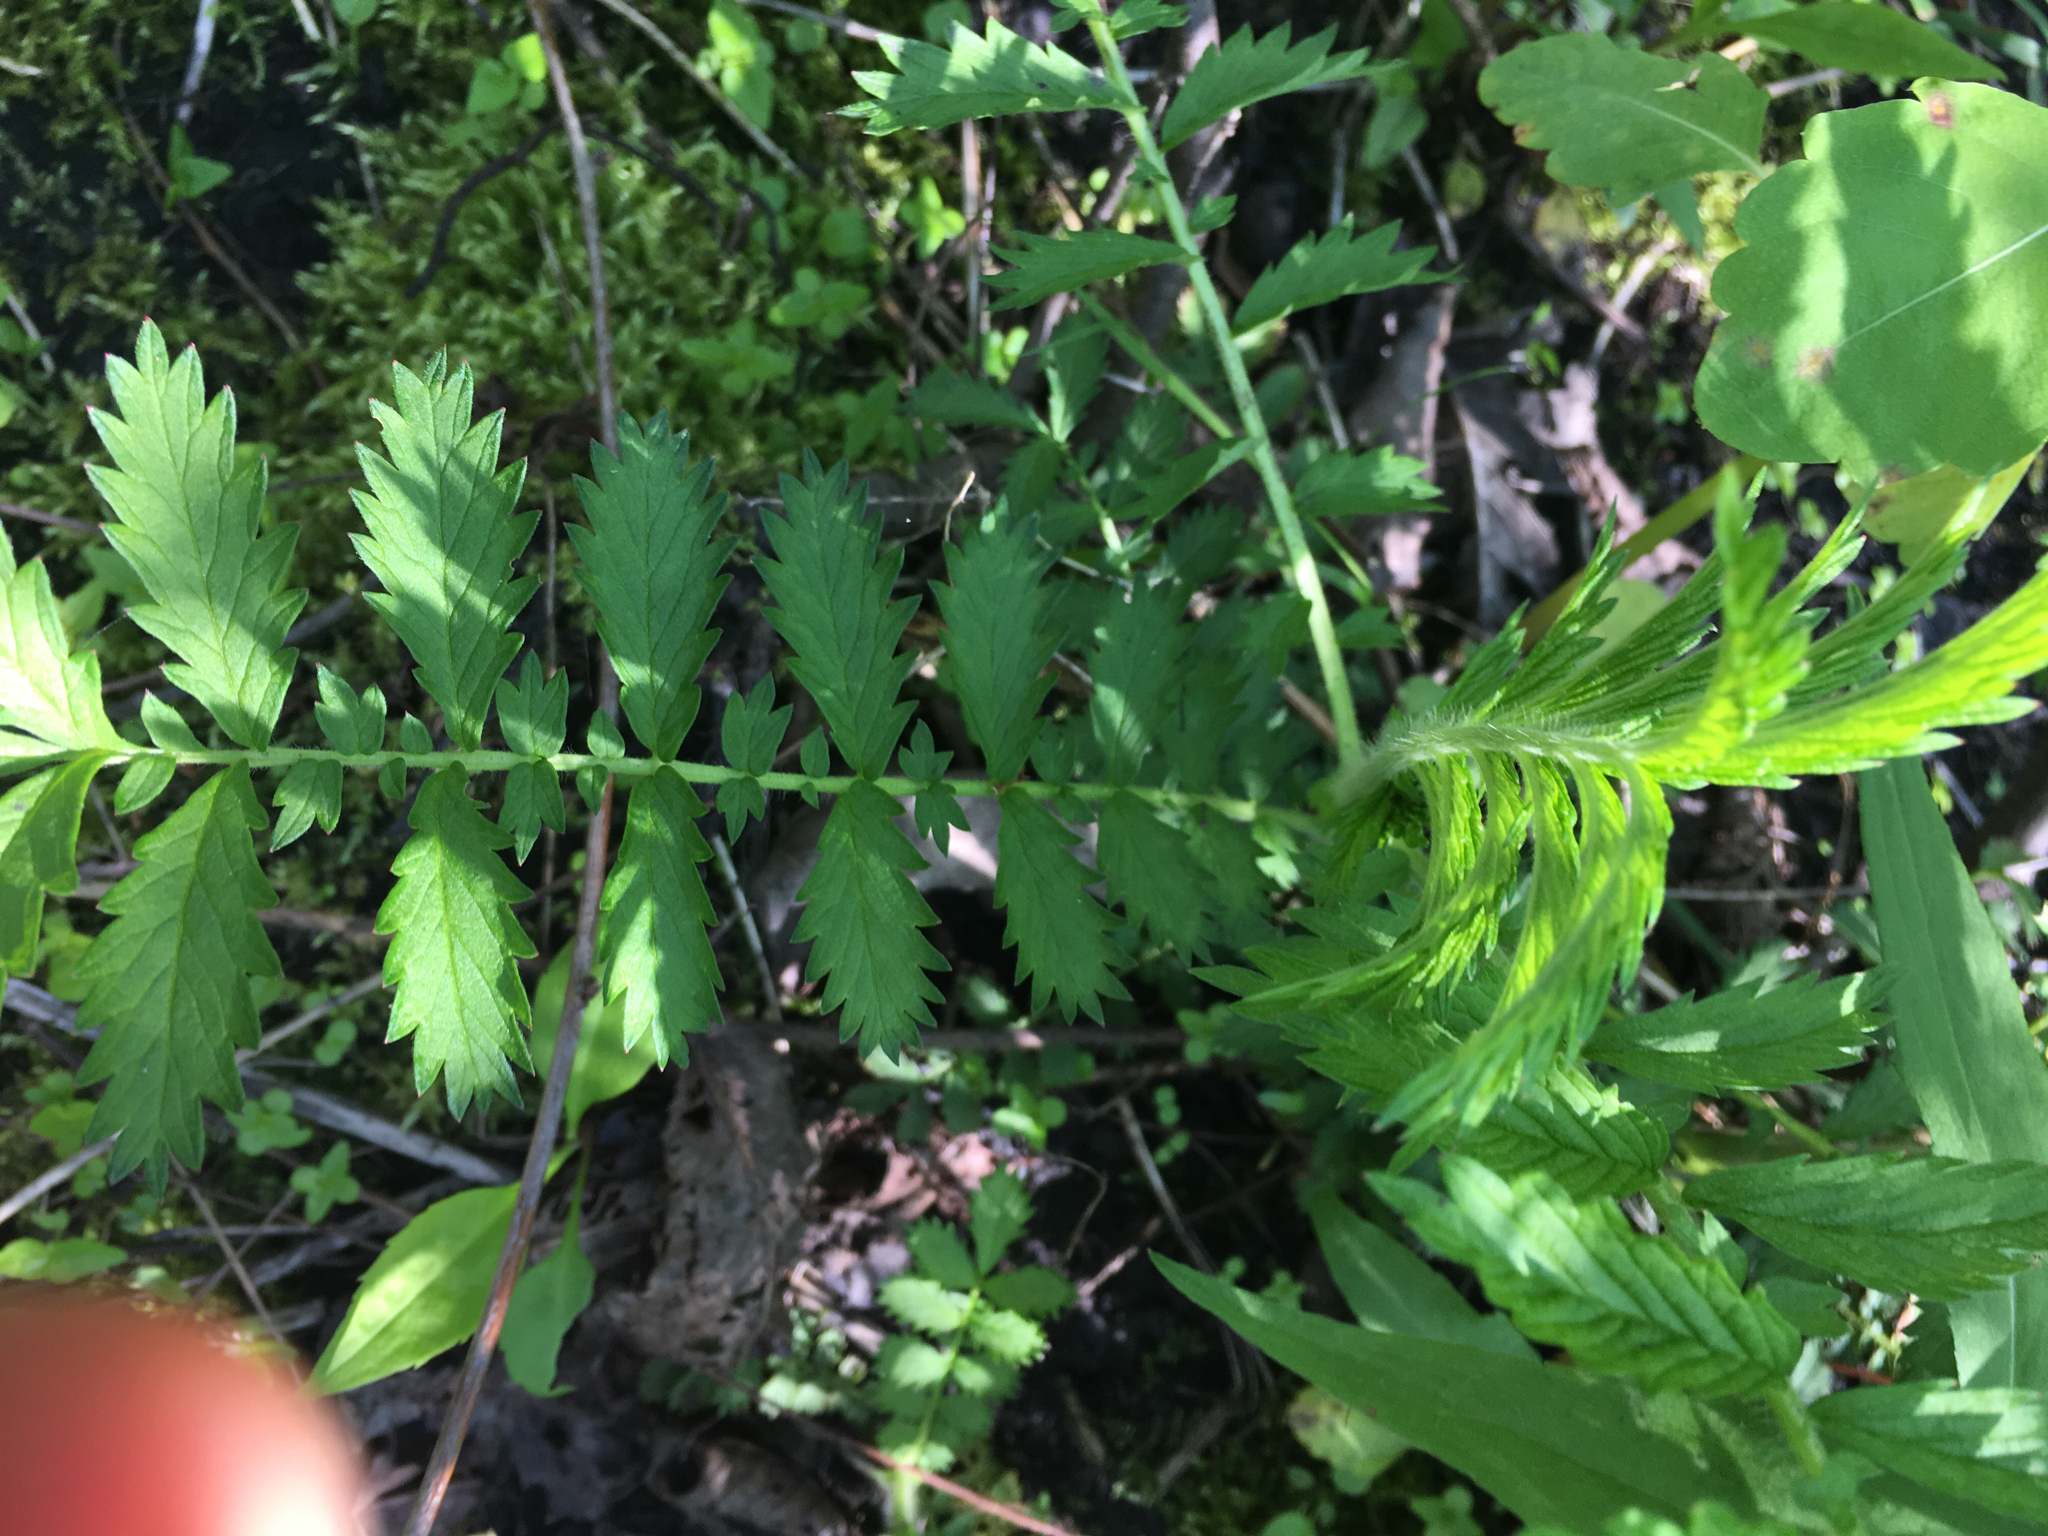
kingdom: Plantae
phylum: Tracheophyta
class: Magnoliopsida
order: Rosales
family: Rosaceae
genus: Agrimonia
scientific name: Agrimonia parviflora
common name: Harvest-lice
